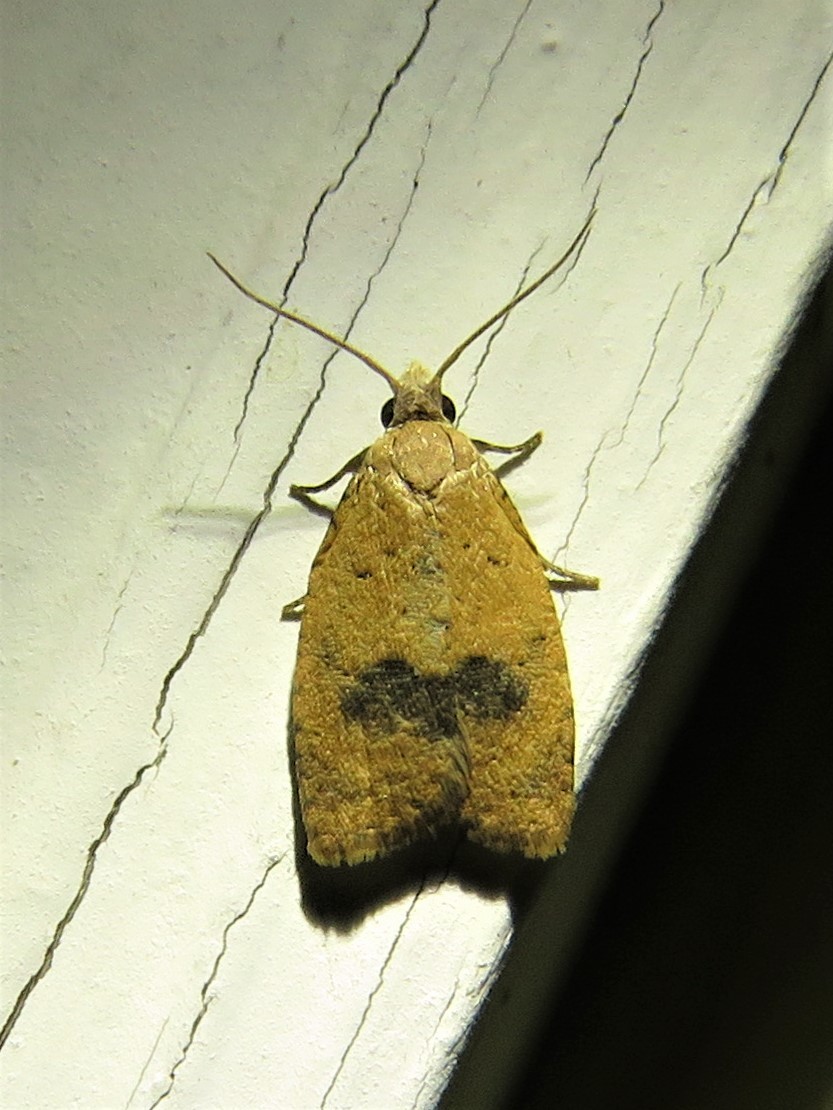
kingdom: Animalia
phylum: Arthropoda
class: Insecta
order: Lepidoptera
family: Tortricidae
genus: Sparganothoides
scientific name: Sparganothoides lentiginosana
